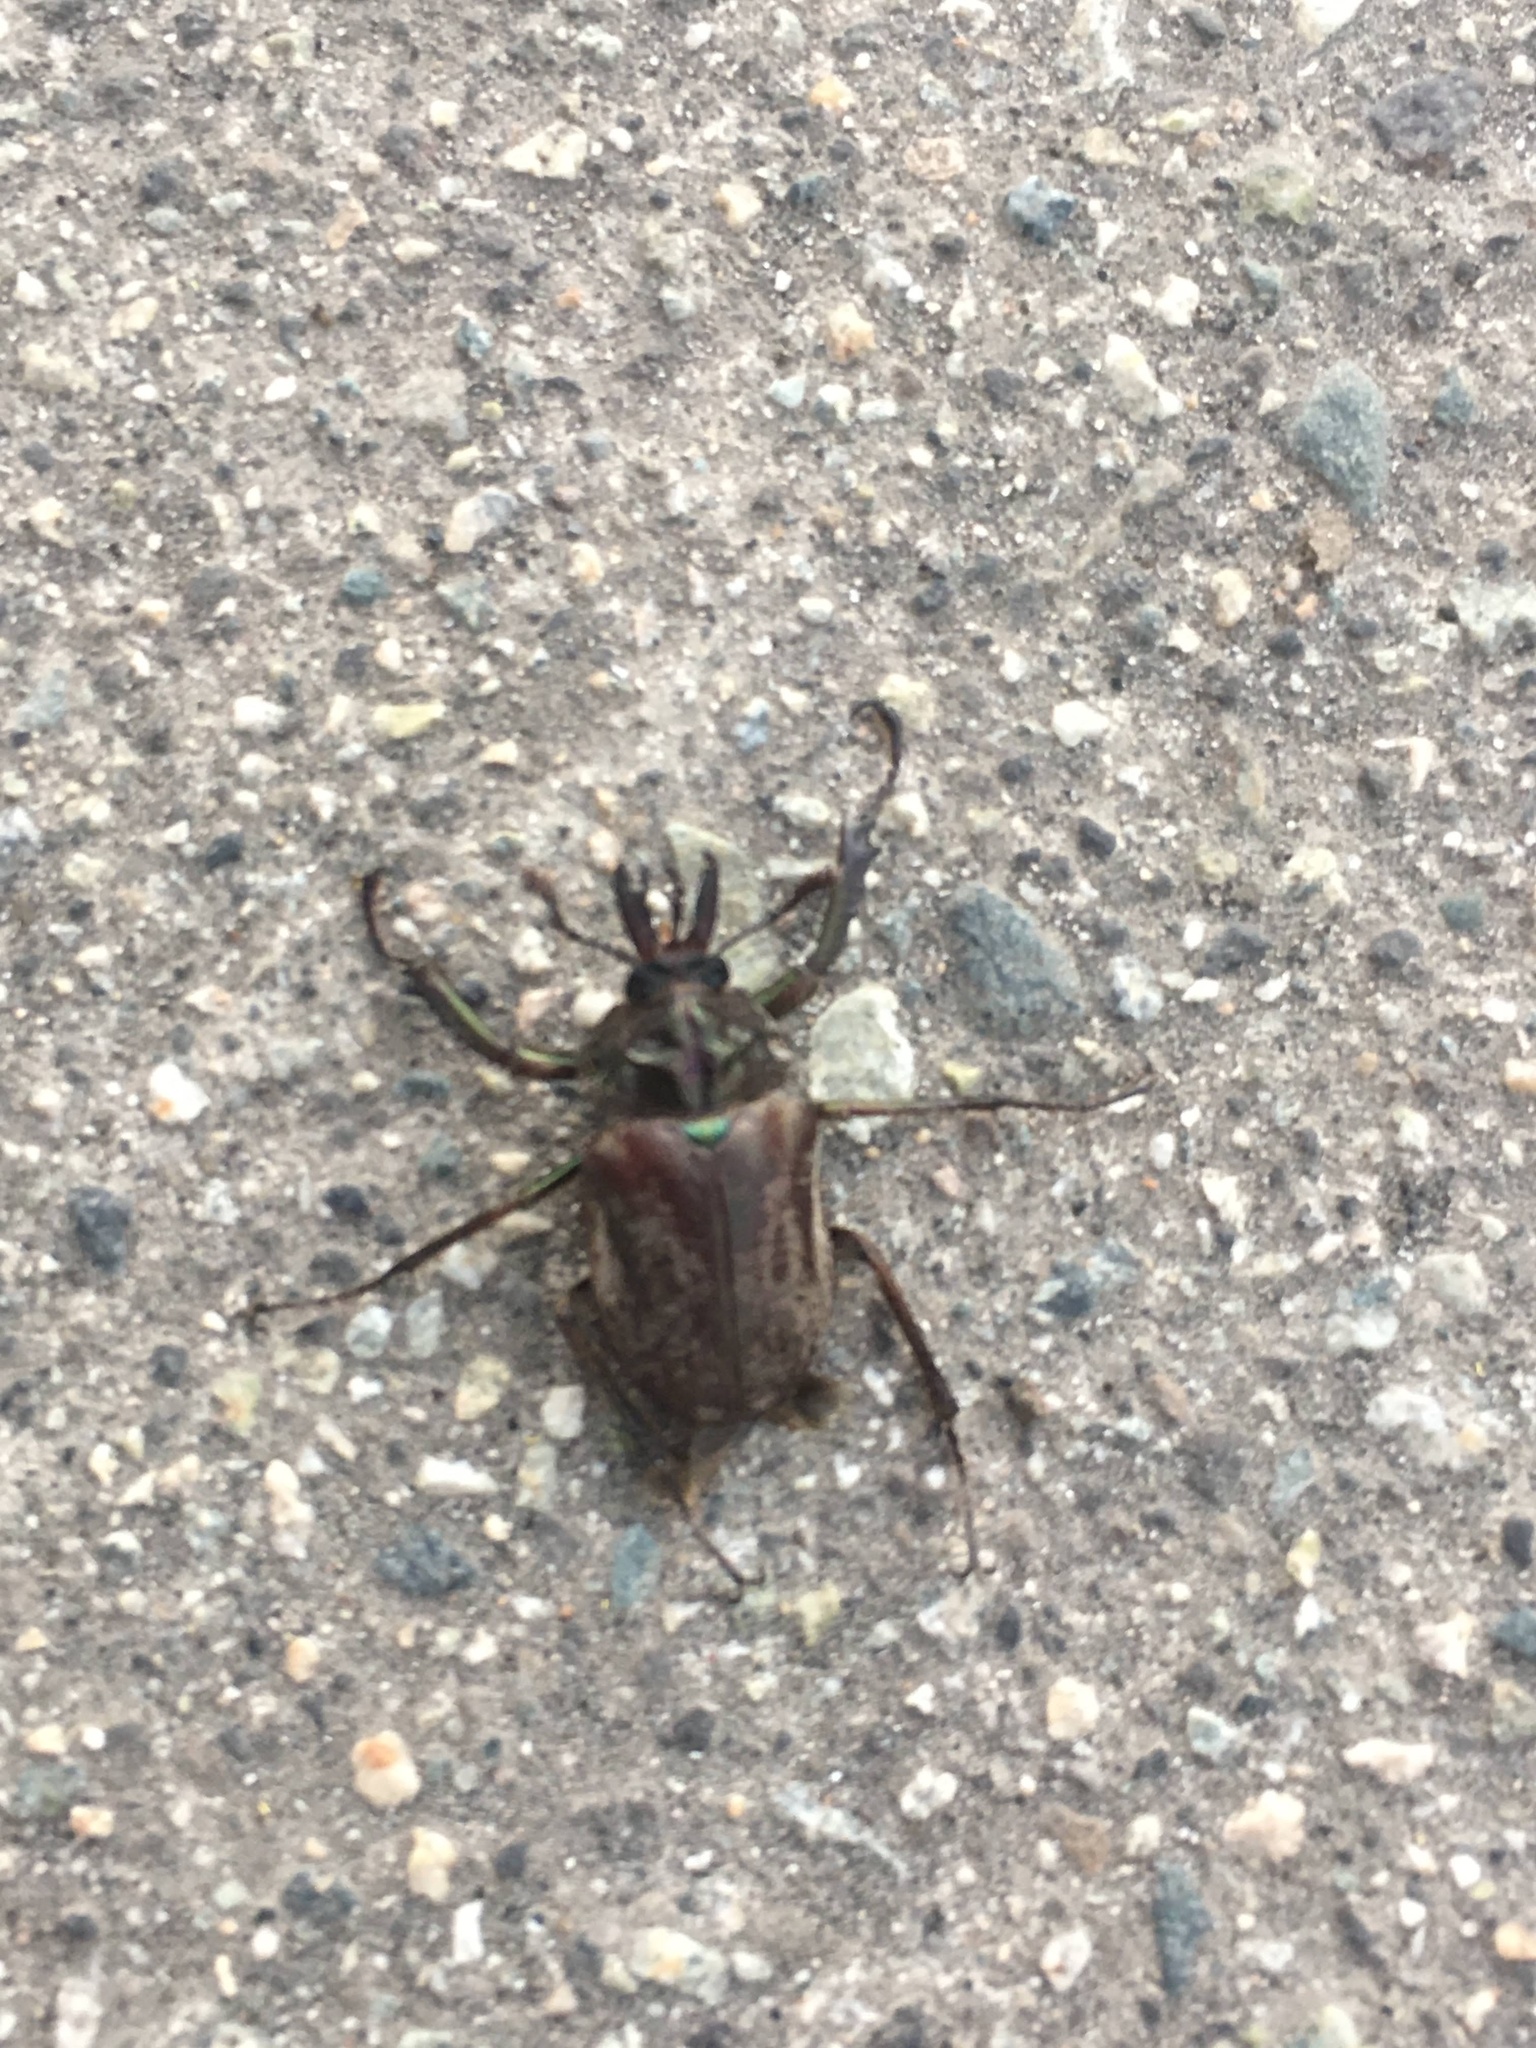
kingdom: Animalia
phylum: Arthropoda
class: Insecta
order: Coleoptera
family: Lucanidae
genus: Chiasognathus
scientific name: Chiasognathus latreillei
